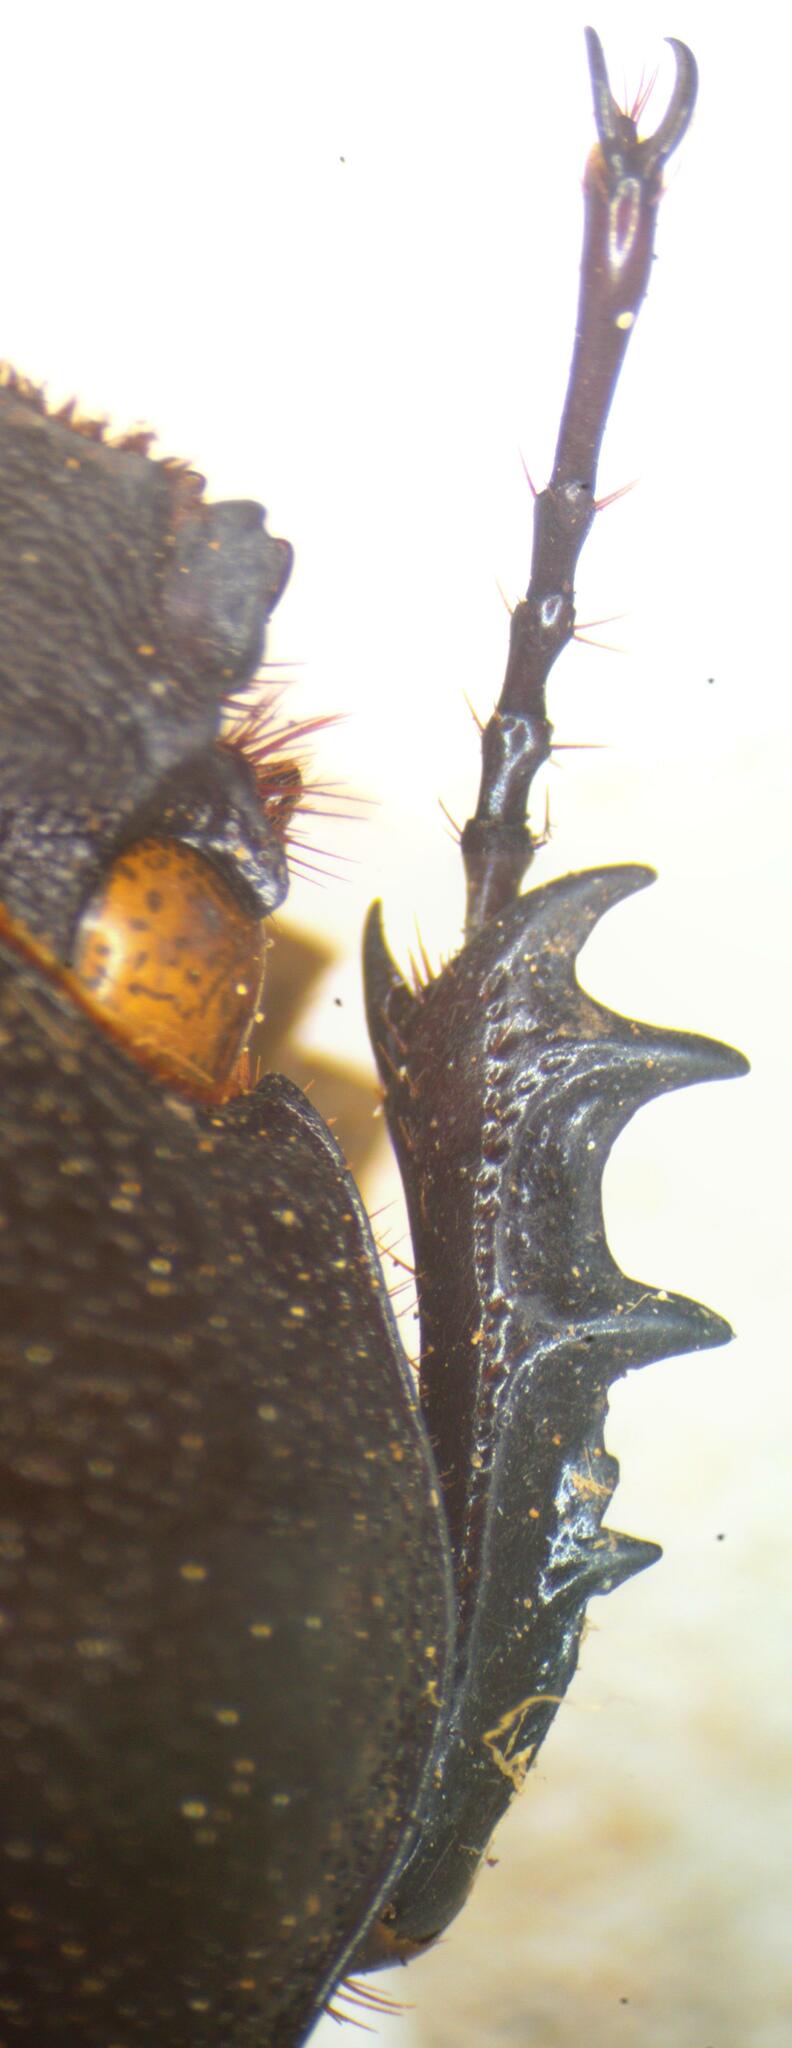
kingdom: Animalia
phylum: Arthropoda
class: Insecta
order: Coleoptera
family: Scarabaeidae
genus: Golofa
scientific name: Golofa tersander
